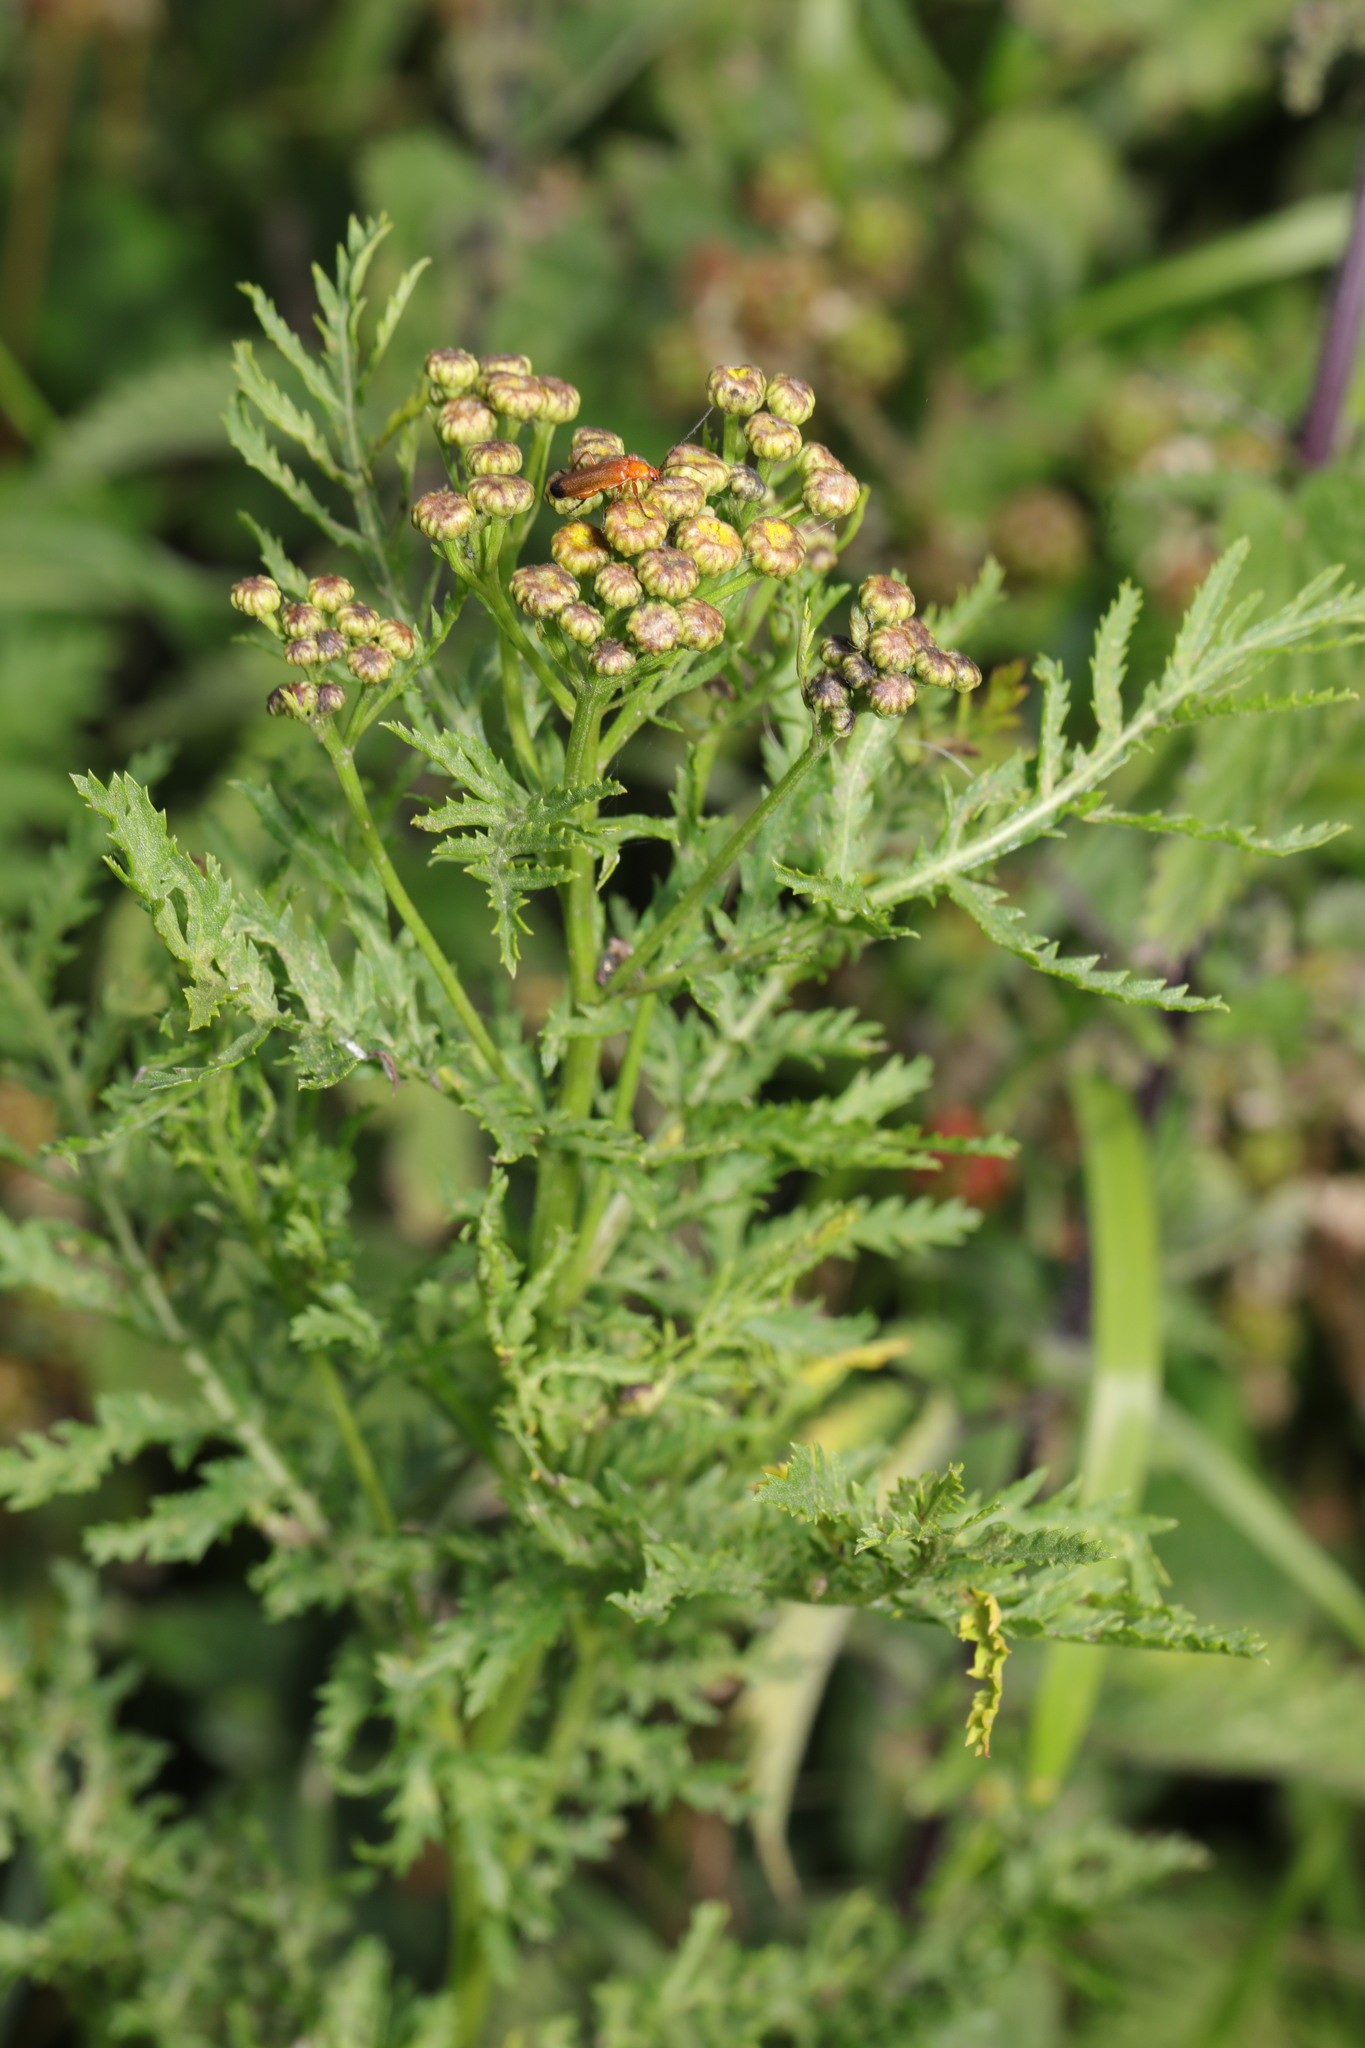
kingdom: Plantae
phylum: Tracheophyta
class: Magnoliopsida
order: Asterales
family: Asteraceae
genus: Tanacetum
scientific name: Tanacetum vulgare
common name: Common tansy
